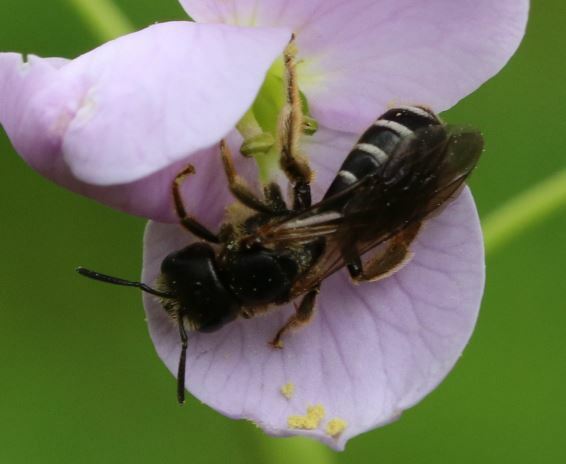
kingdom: Animalia
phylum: Arthropoda
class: Insecta
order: Hymenoptera
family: Halictidae
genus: Halictus
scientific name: Halictus maculatus
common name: Box-heades furrow bee
